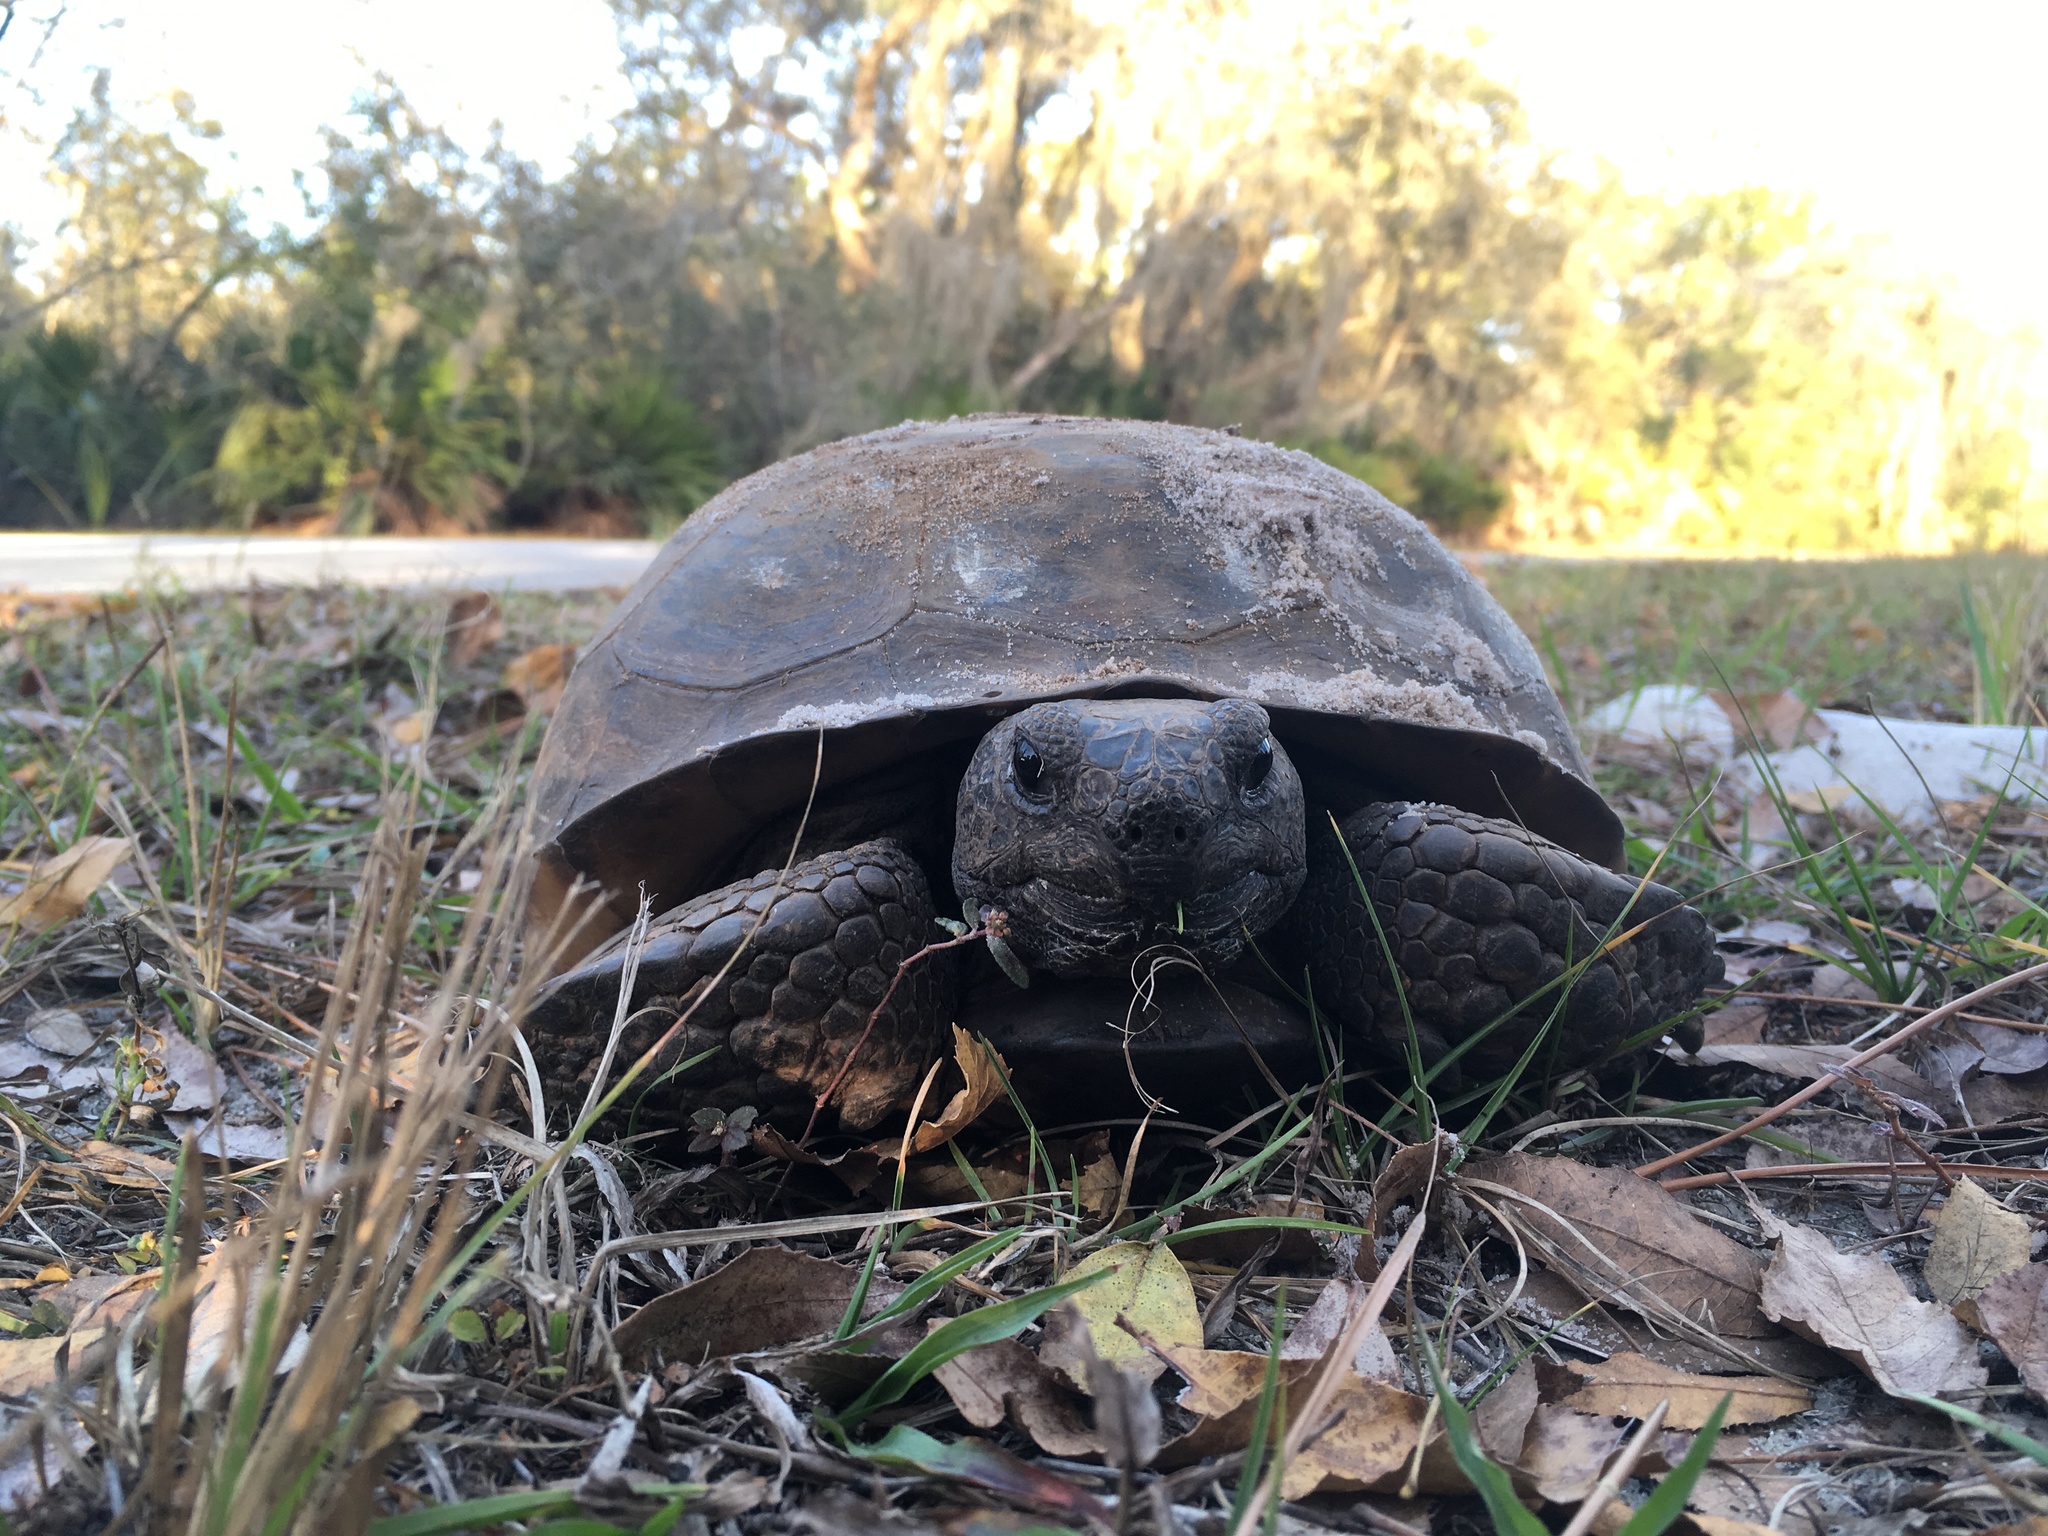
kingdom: Animalia
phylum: Chordata
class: Testudines
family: Testudinidae
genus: Gopherus
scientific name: Gopherus polyphemus
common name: Florida gopher tortoise
